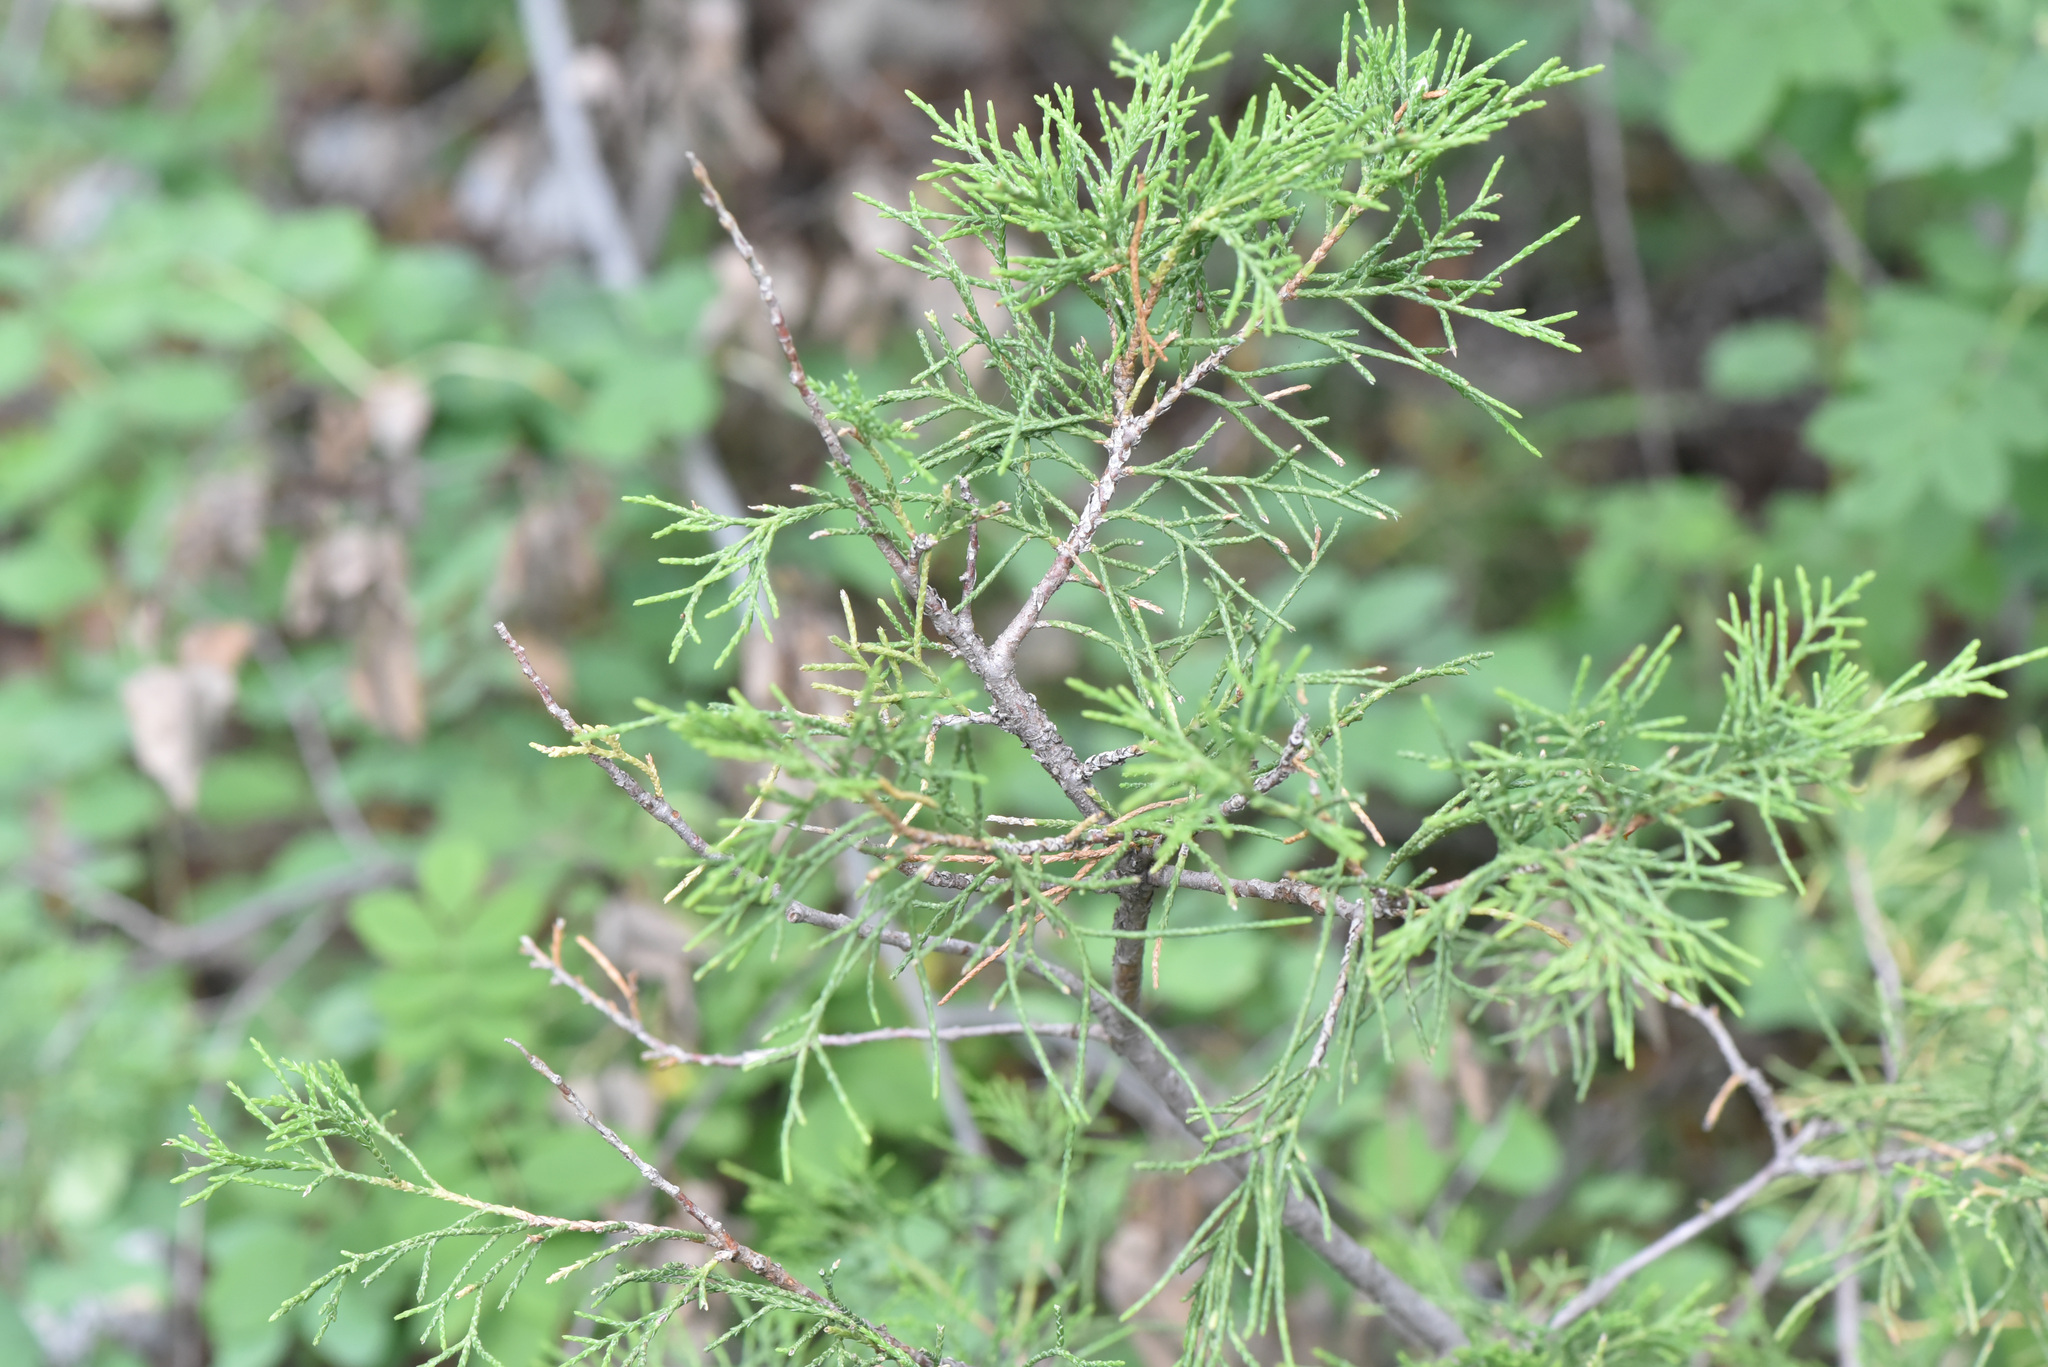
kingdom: Plantae
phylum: Tracheophyta
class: Pinopsida
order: Pinales
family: Cupressaceae
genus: Juniperus
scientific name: Juniperus scopulorum
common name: Rocky mountain juniper
